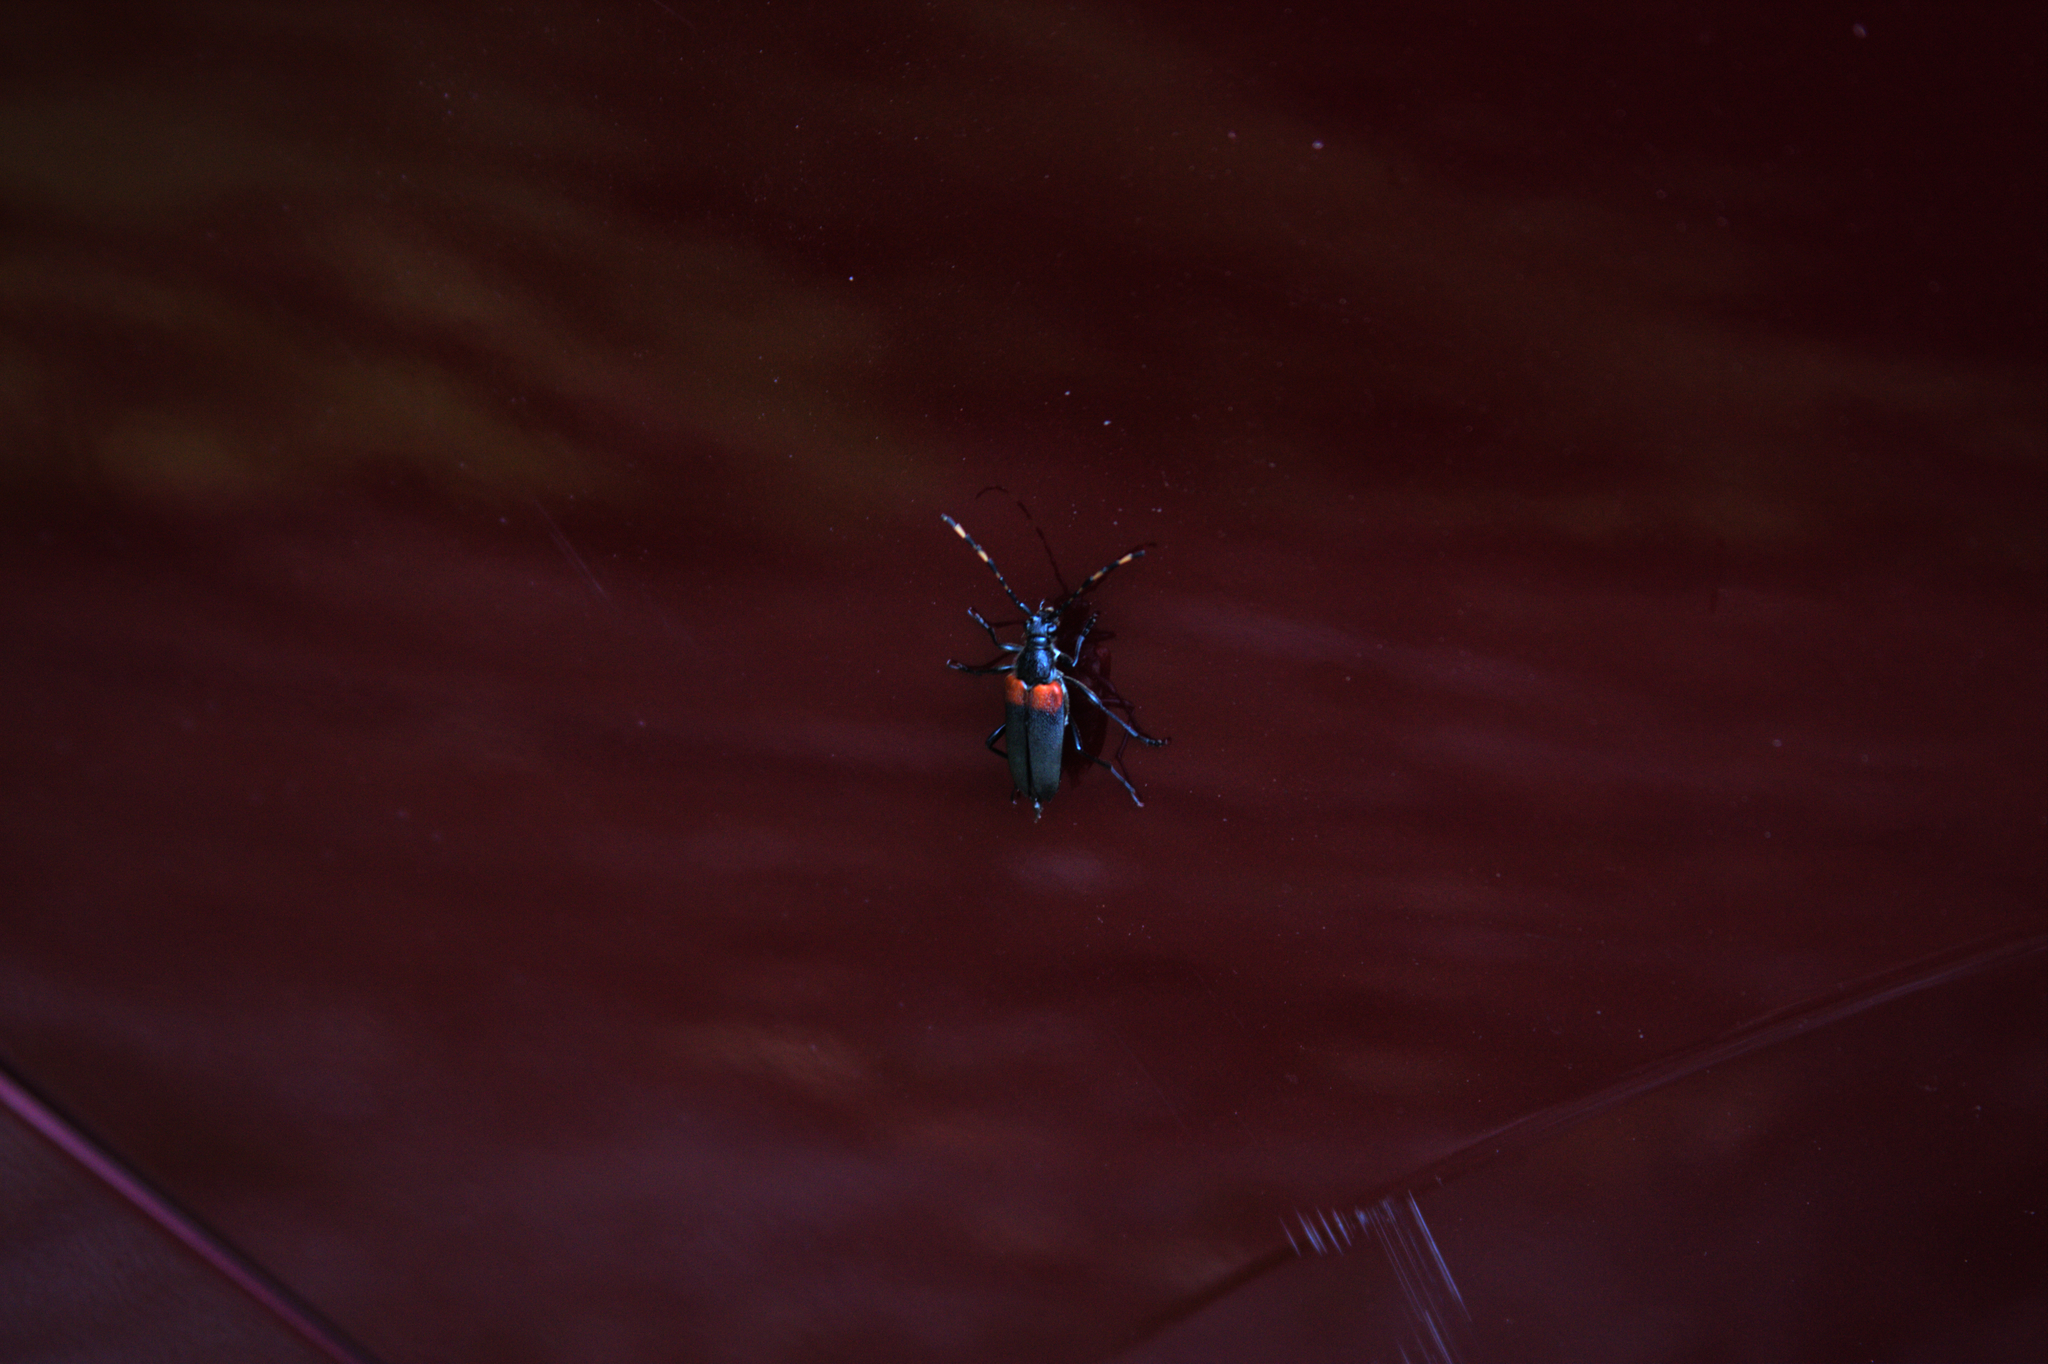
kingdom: Animalia
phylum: Arthropoda
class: Insecta
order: Coleoptera
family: Cerambycidae
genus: Stictoleptura
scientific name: Stictoleptura canadensis
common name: Red-shouldered pine borer
